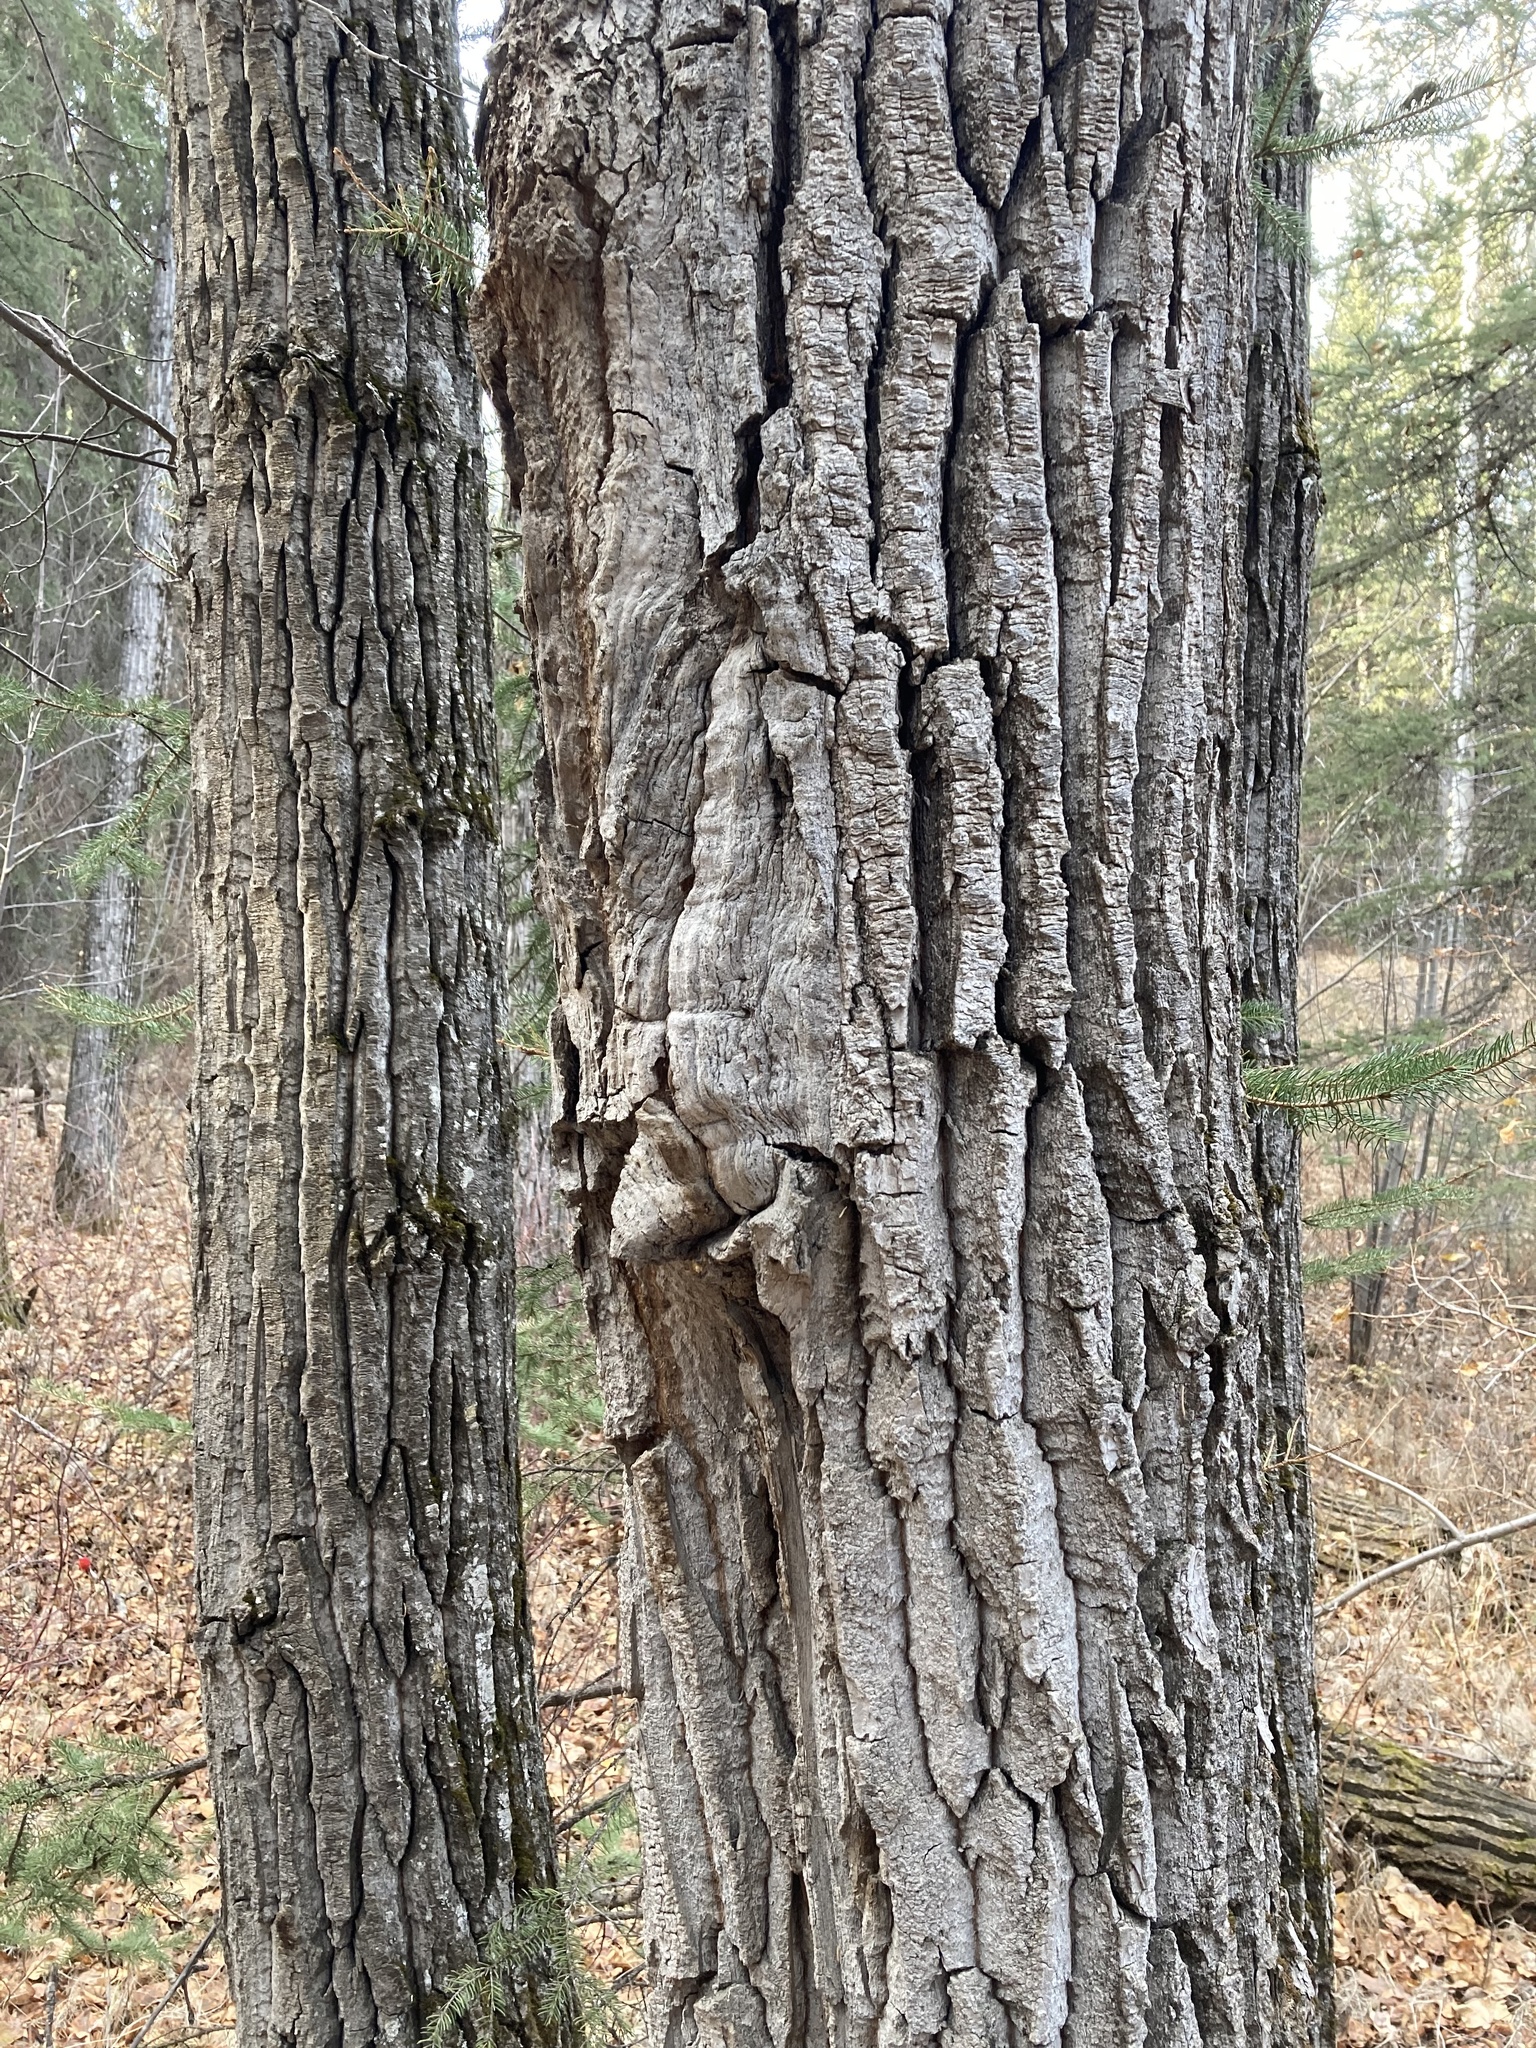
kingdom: Plantae
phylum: Tracheophyta
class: Magnoliopsida
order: Malpighiales
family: Salicaceae
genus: Populus
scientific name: Populus balsamifera
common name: Balsam poplar
